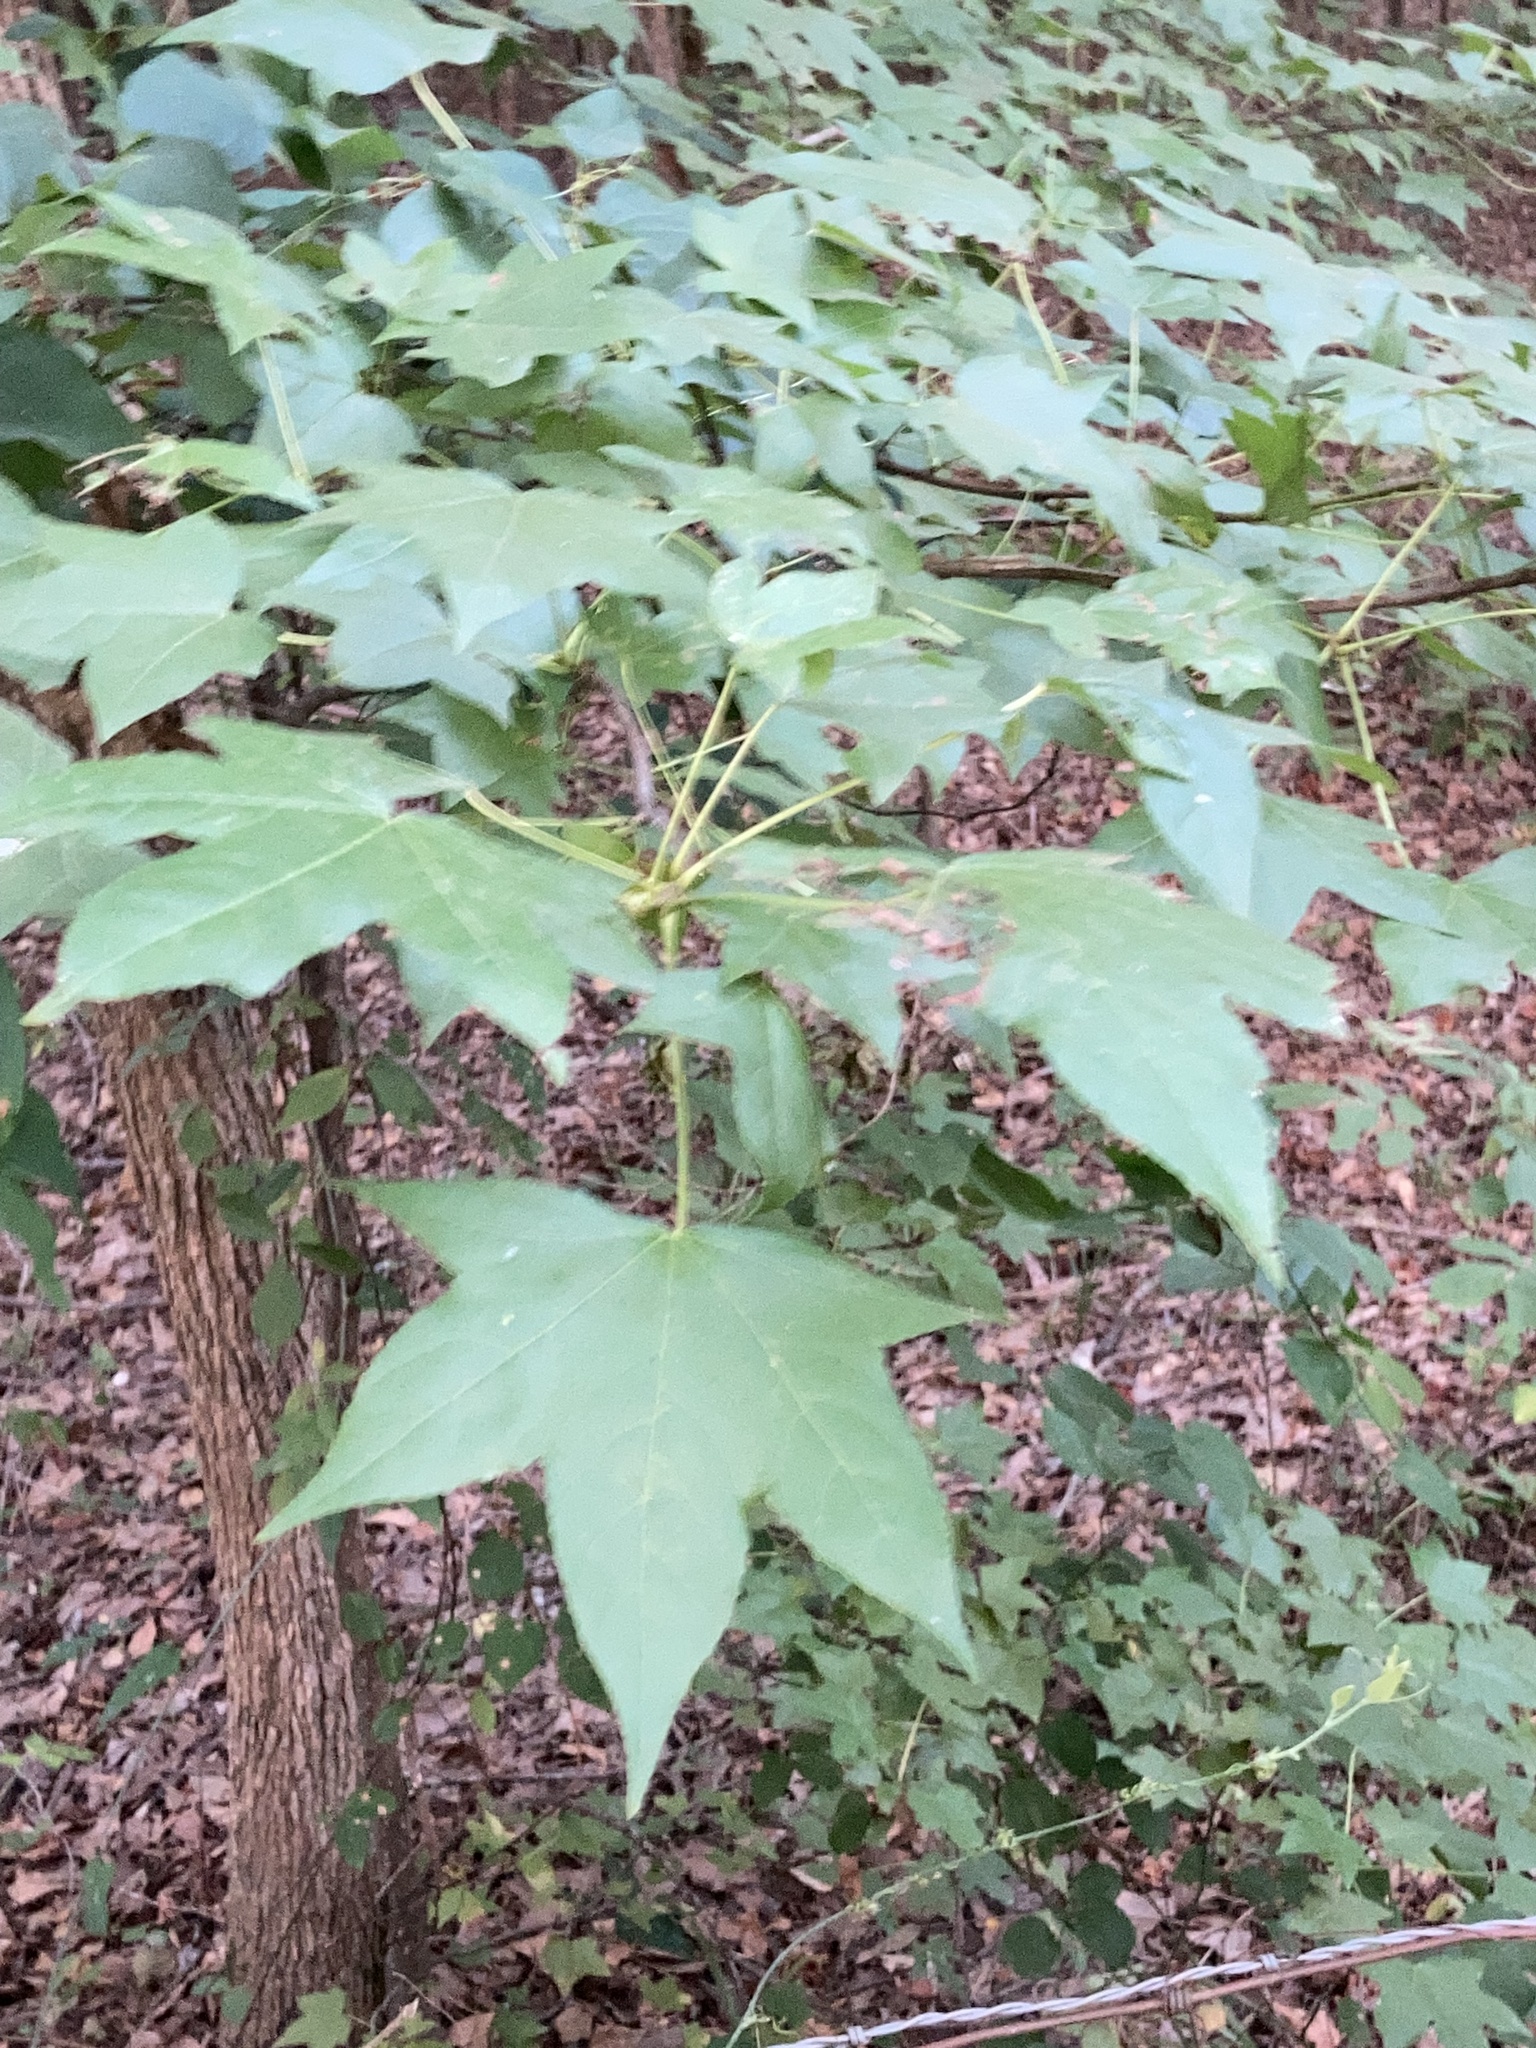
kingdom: Plantae
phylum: Tracheophyta
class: Magnoliopsida
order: Saxifragales
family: Altingiaceae
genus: Liquidambar
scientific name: Liquidambar styraciflua
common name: Sweet gum
